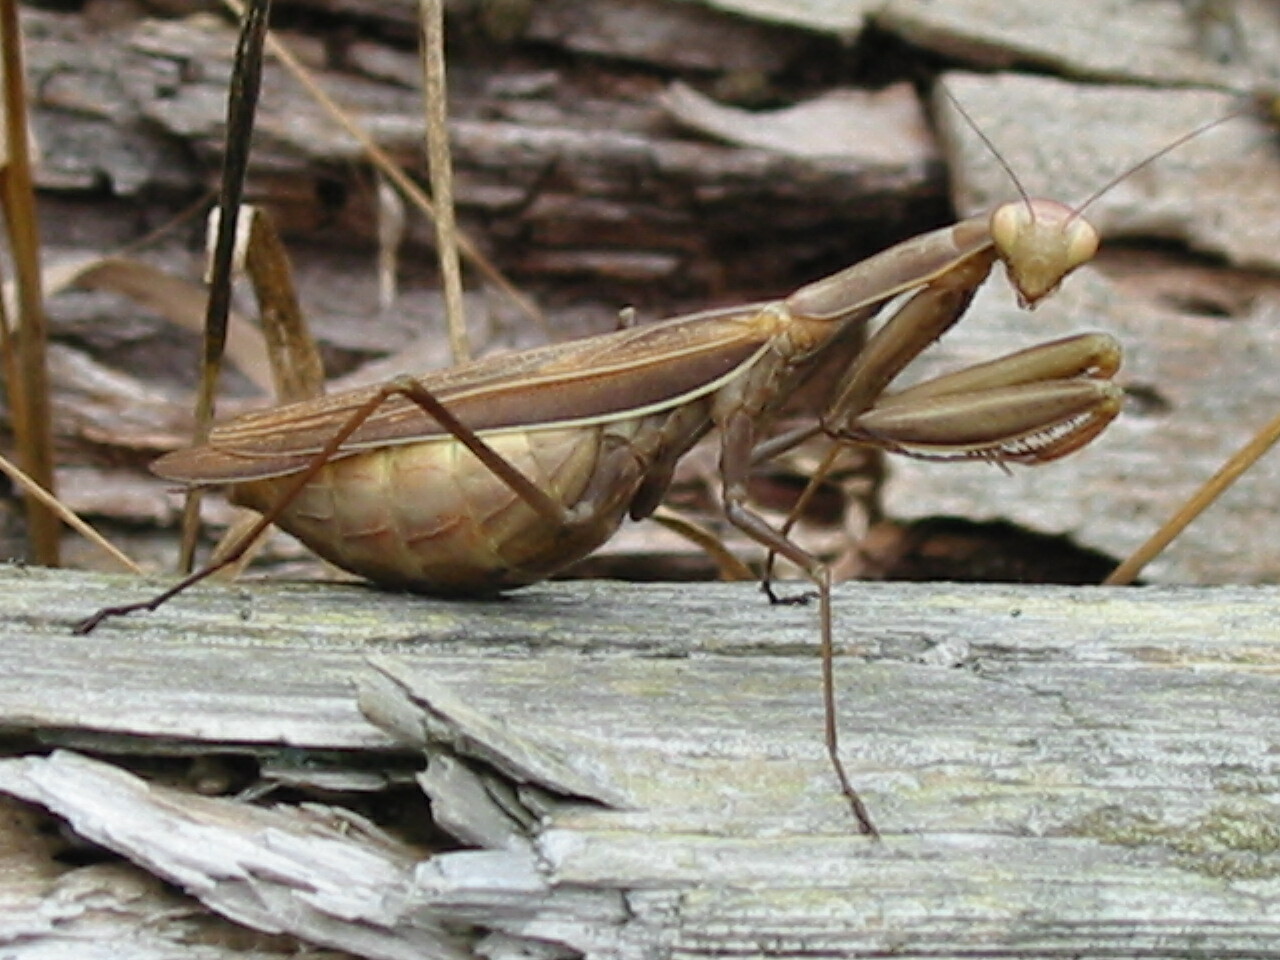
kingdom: Animalia
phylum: Arthropoda
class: Insecta
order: Mantodea
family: Mantidae
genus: Mantis
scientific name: Mantis religiosa
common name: Praying mantis
